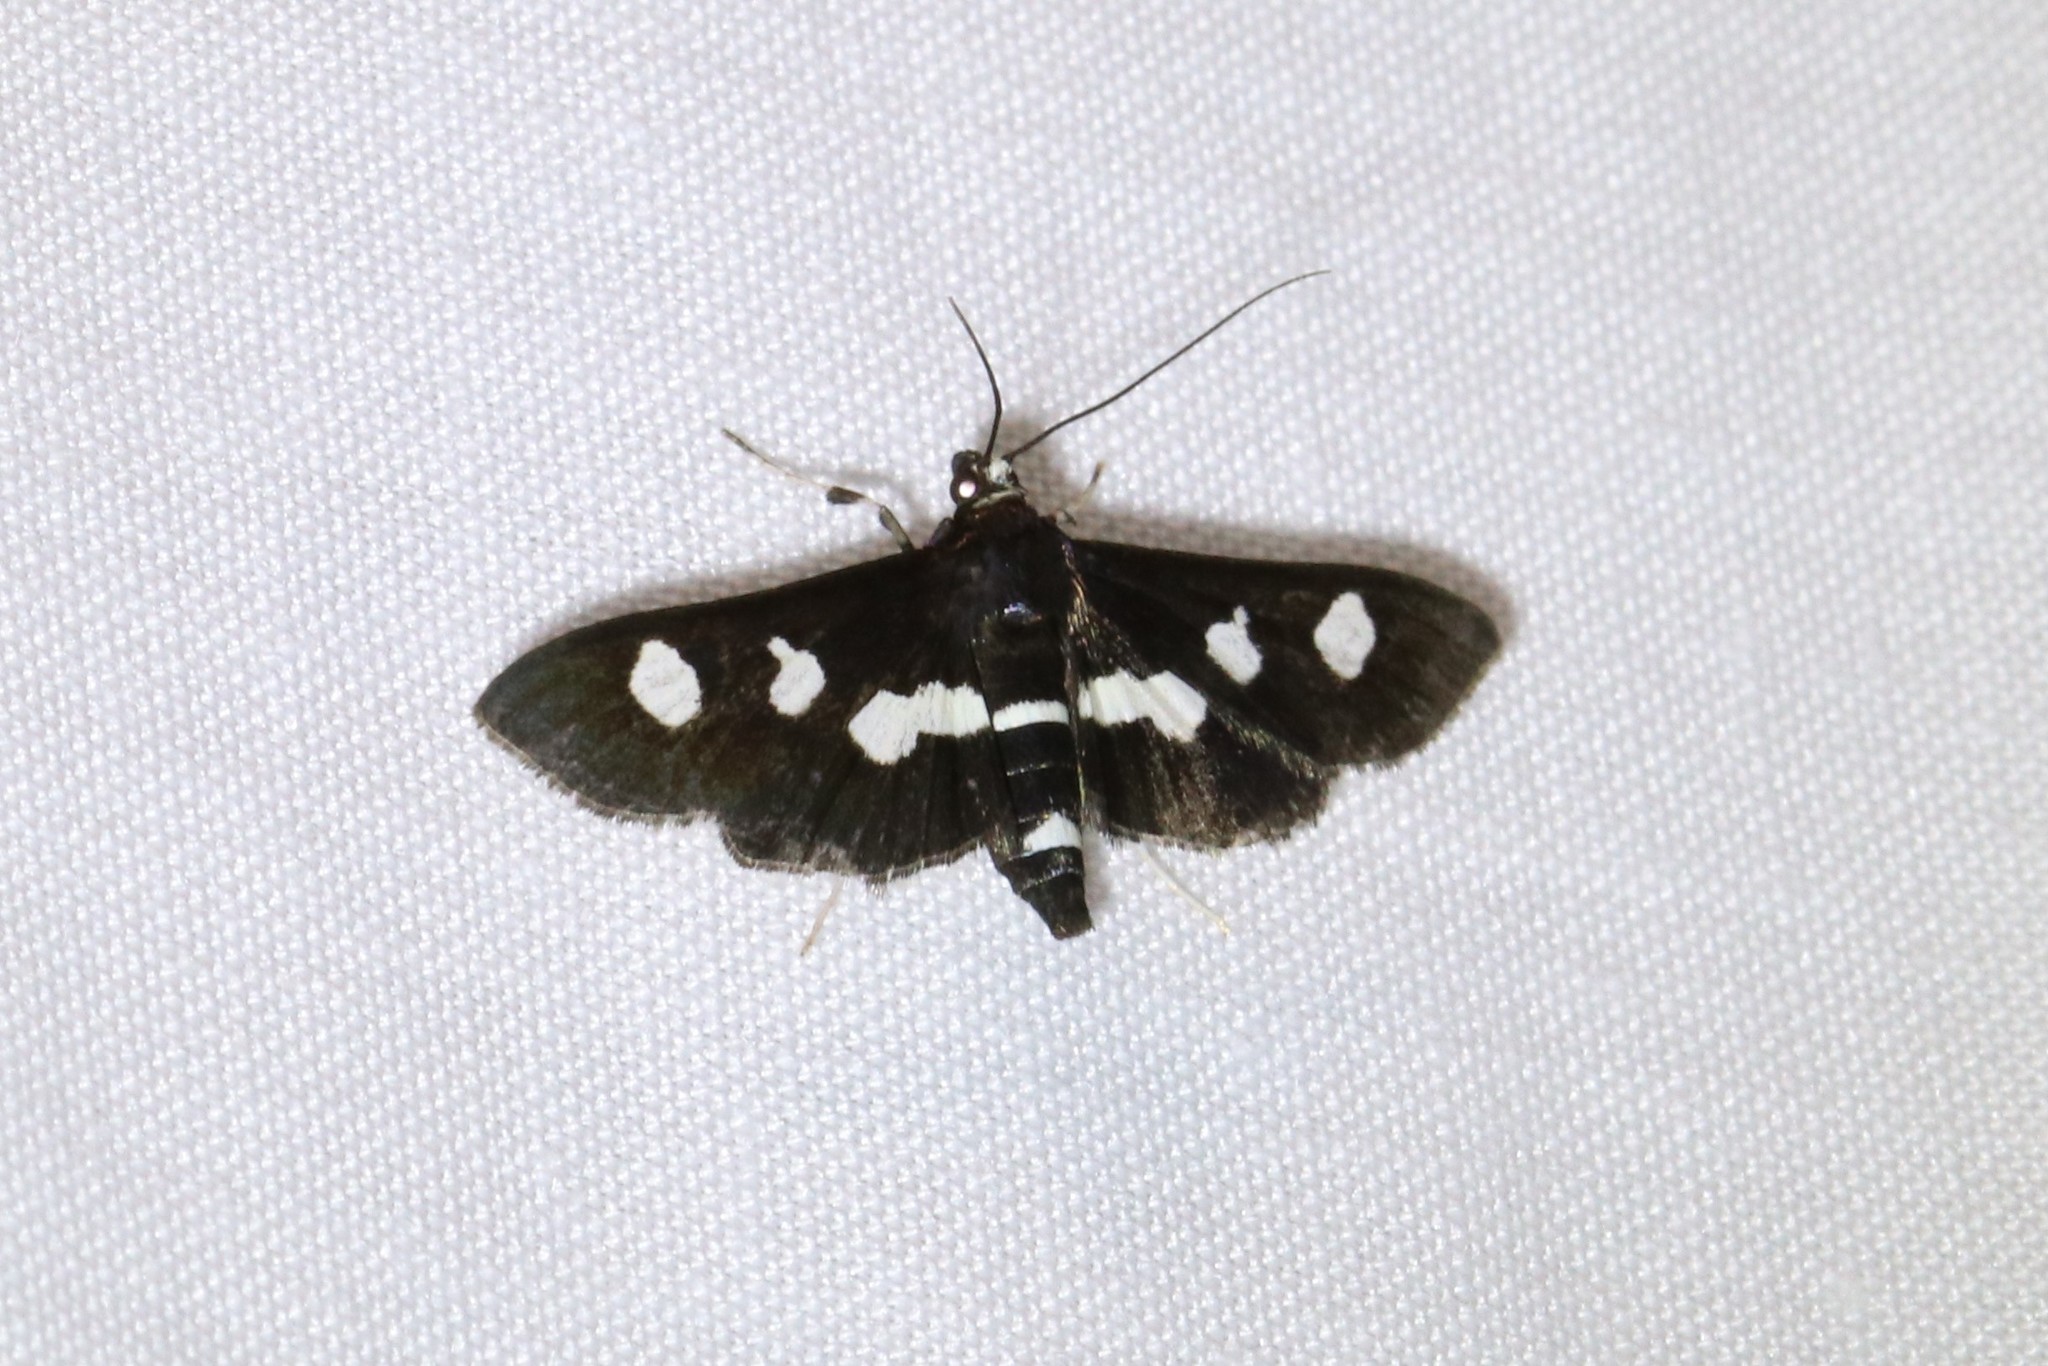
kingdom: Animalia
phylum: Arthropoda
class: Insecta
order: Lepidoptera
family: Crambidae
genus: Desmia
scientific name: Desmia funeralis
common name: Grape leaf folder moth
